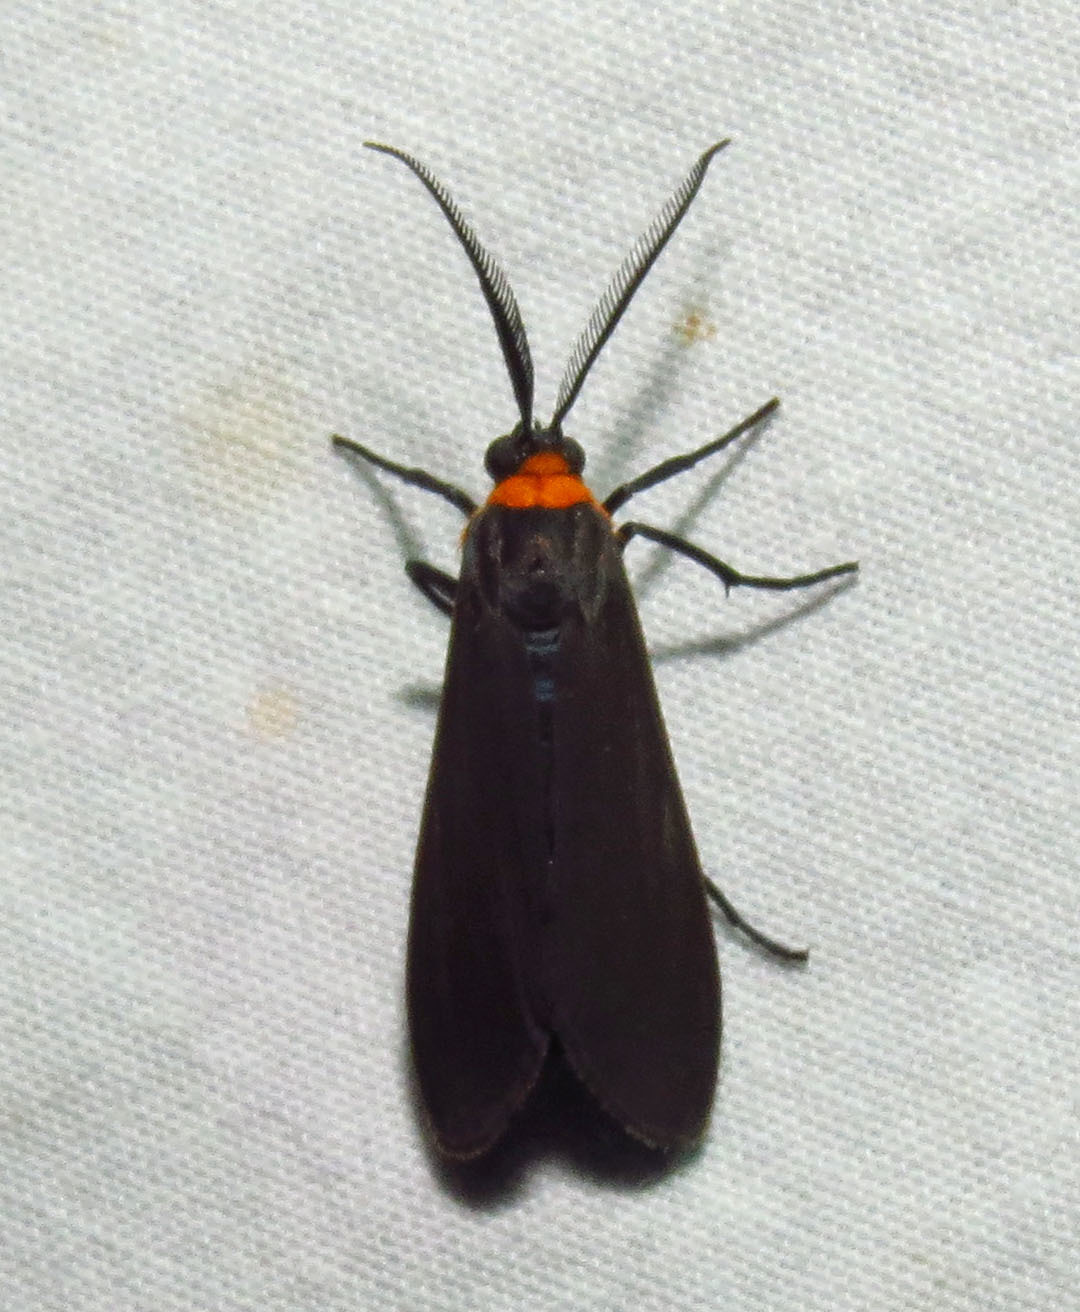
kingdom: Animalia
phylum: Arthropoda
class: Insecta
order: Lepidoptera
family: Erebidae
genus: Cisseps
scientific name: Cisseps fulvicollis
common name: Yellow-collared scape moth
